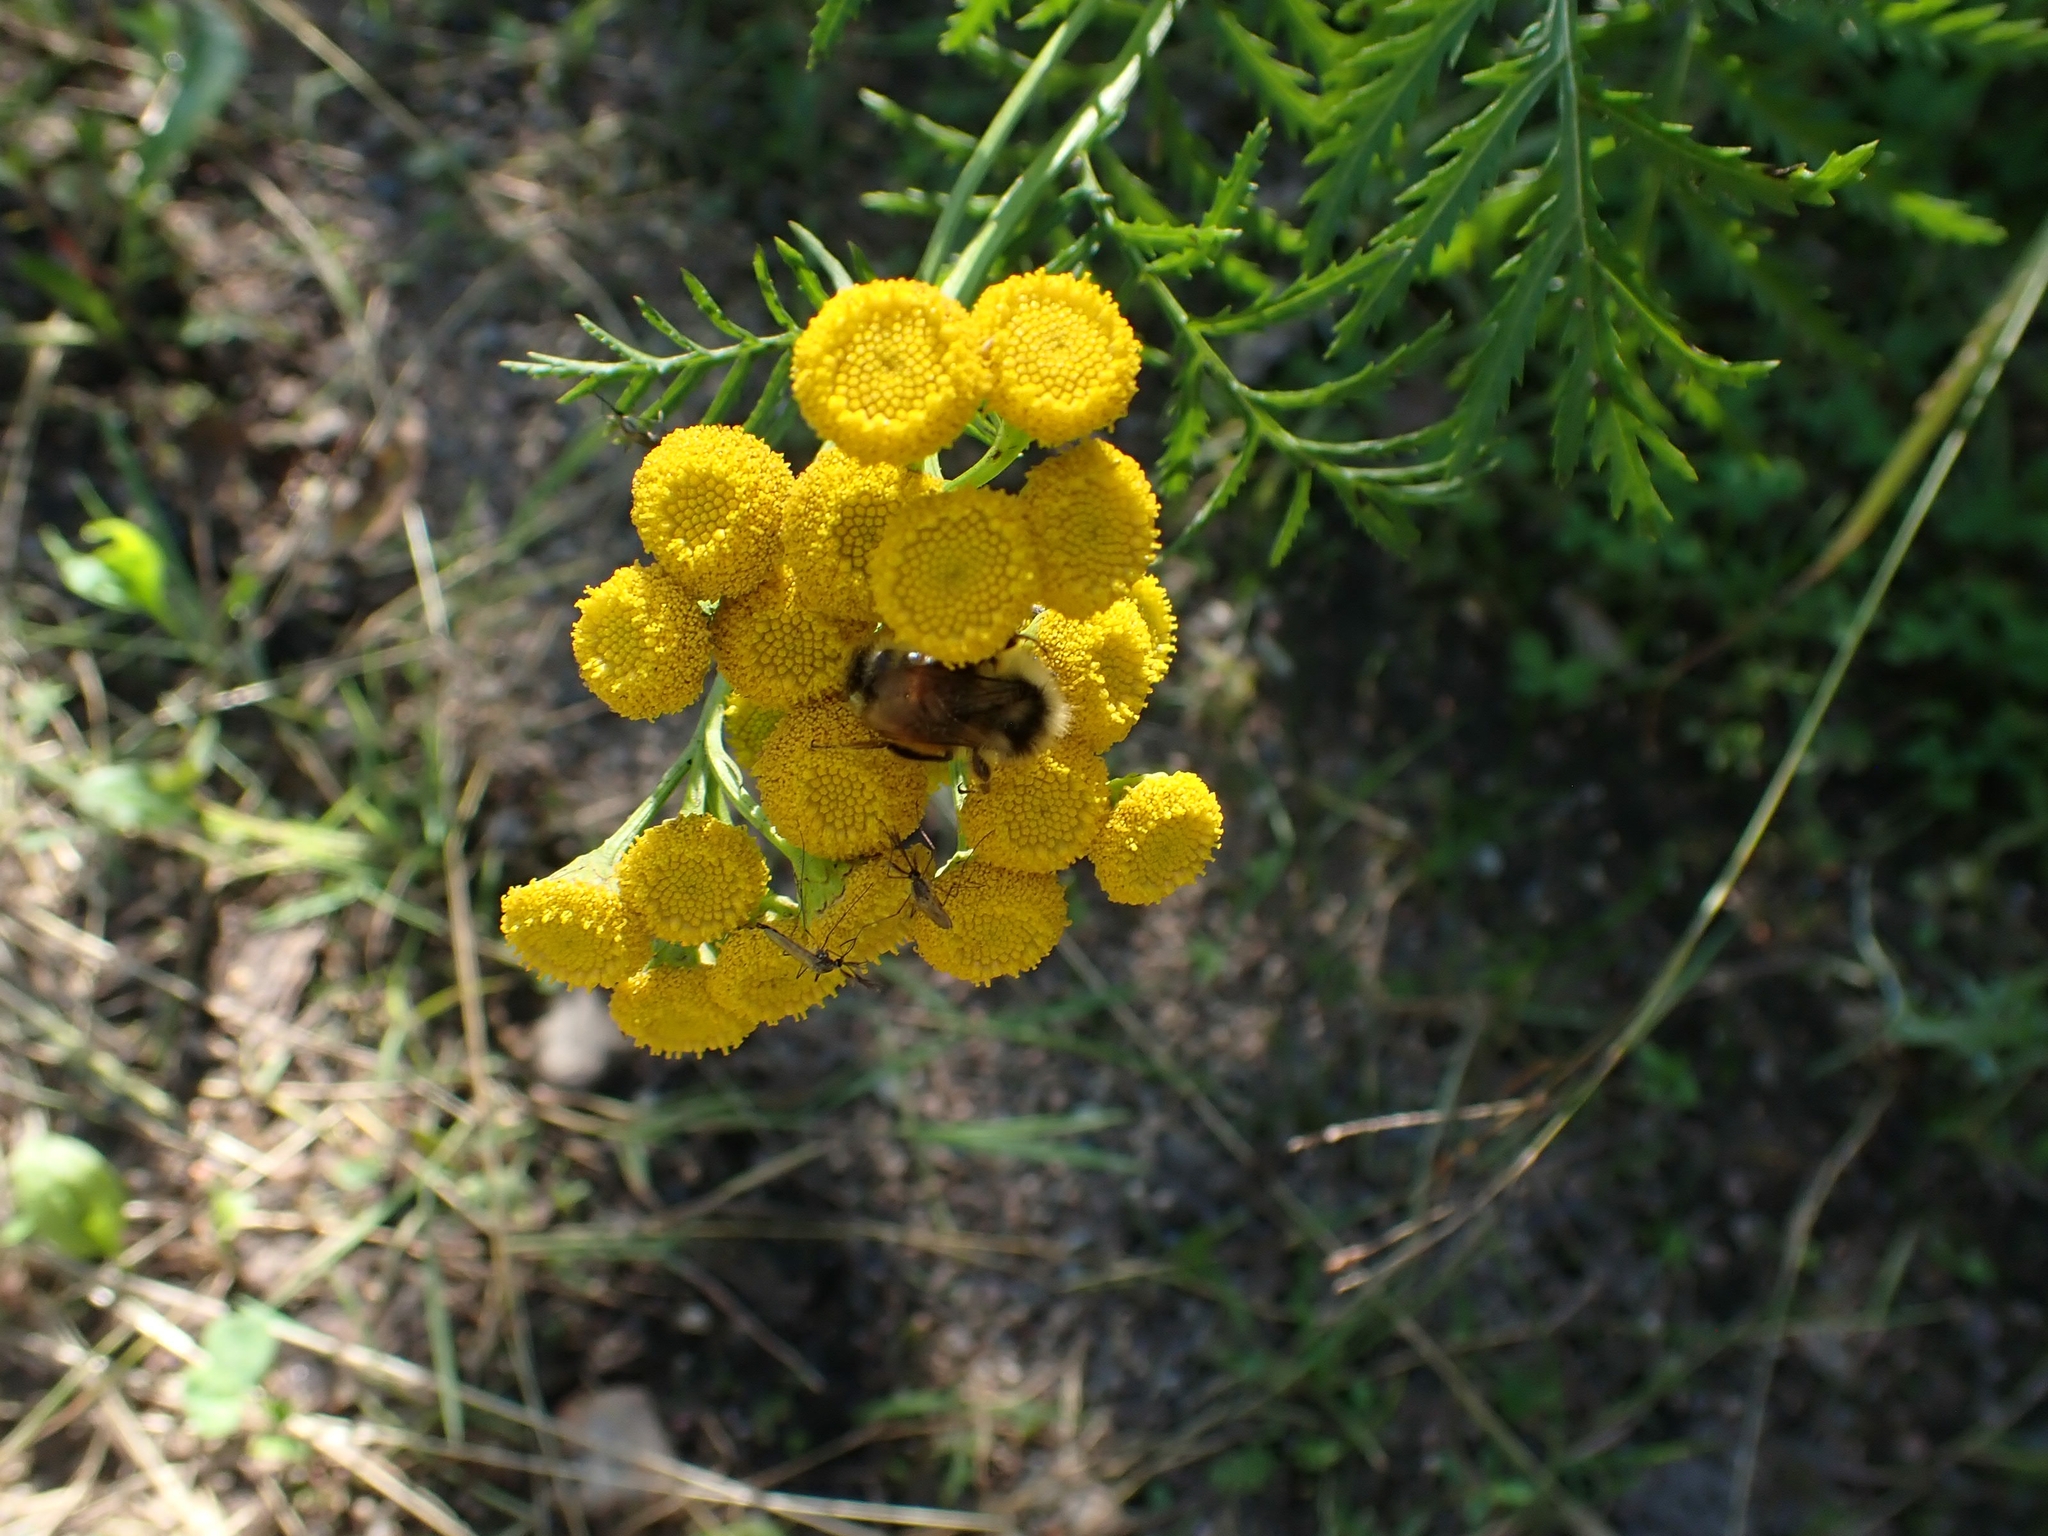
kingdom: Plantae
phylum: Tracheophyta
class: Magnoliopsida
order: Asterales
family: Asteraceae
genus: Tanacetum
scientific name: Tanacetum vulgare
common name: Common tansy
